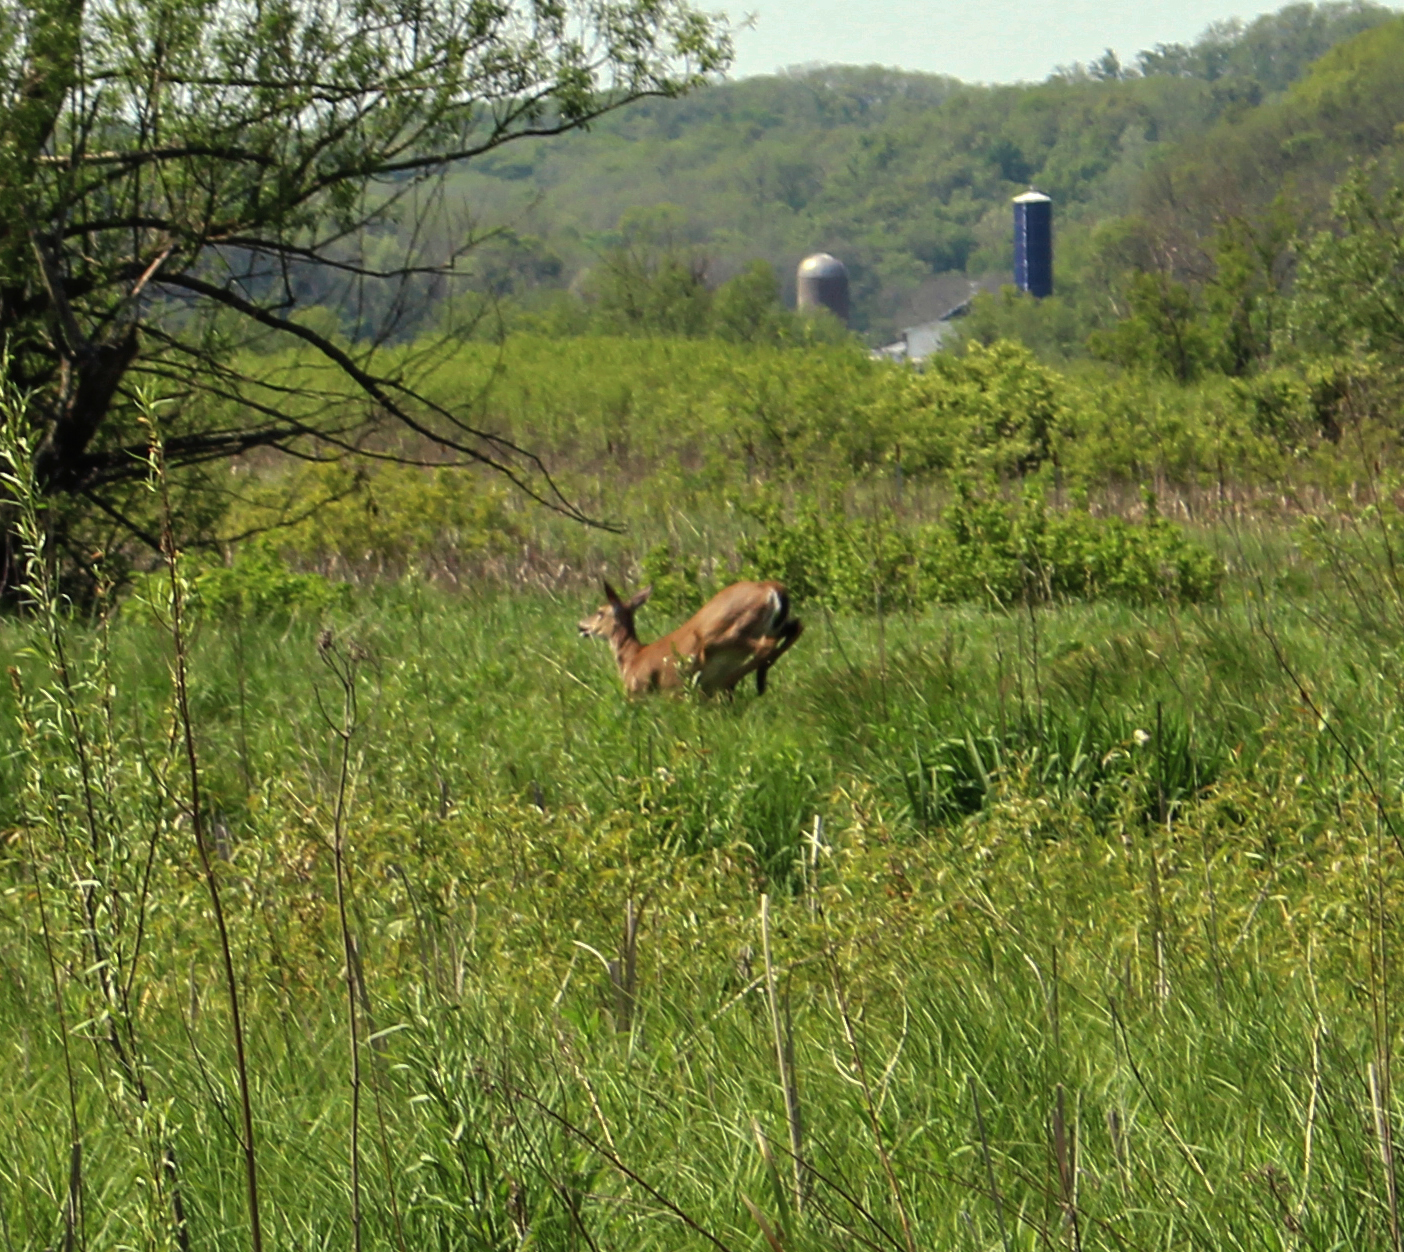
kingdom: Animalia
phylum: Chordata
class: Mammalia
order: Artiodactyla
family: Cervidae
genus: Odocoileus
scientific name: Odocoileus virginianus
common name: White-tailed deer
